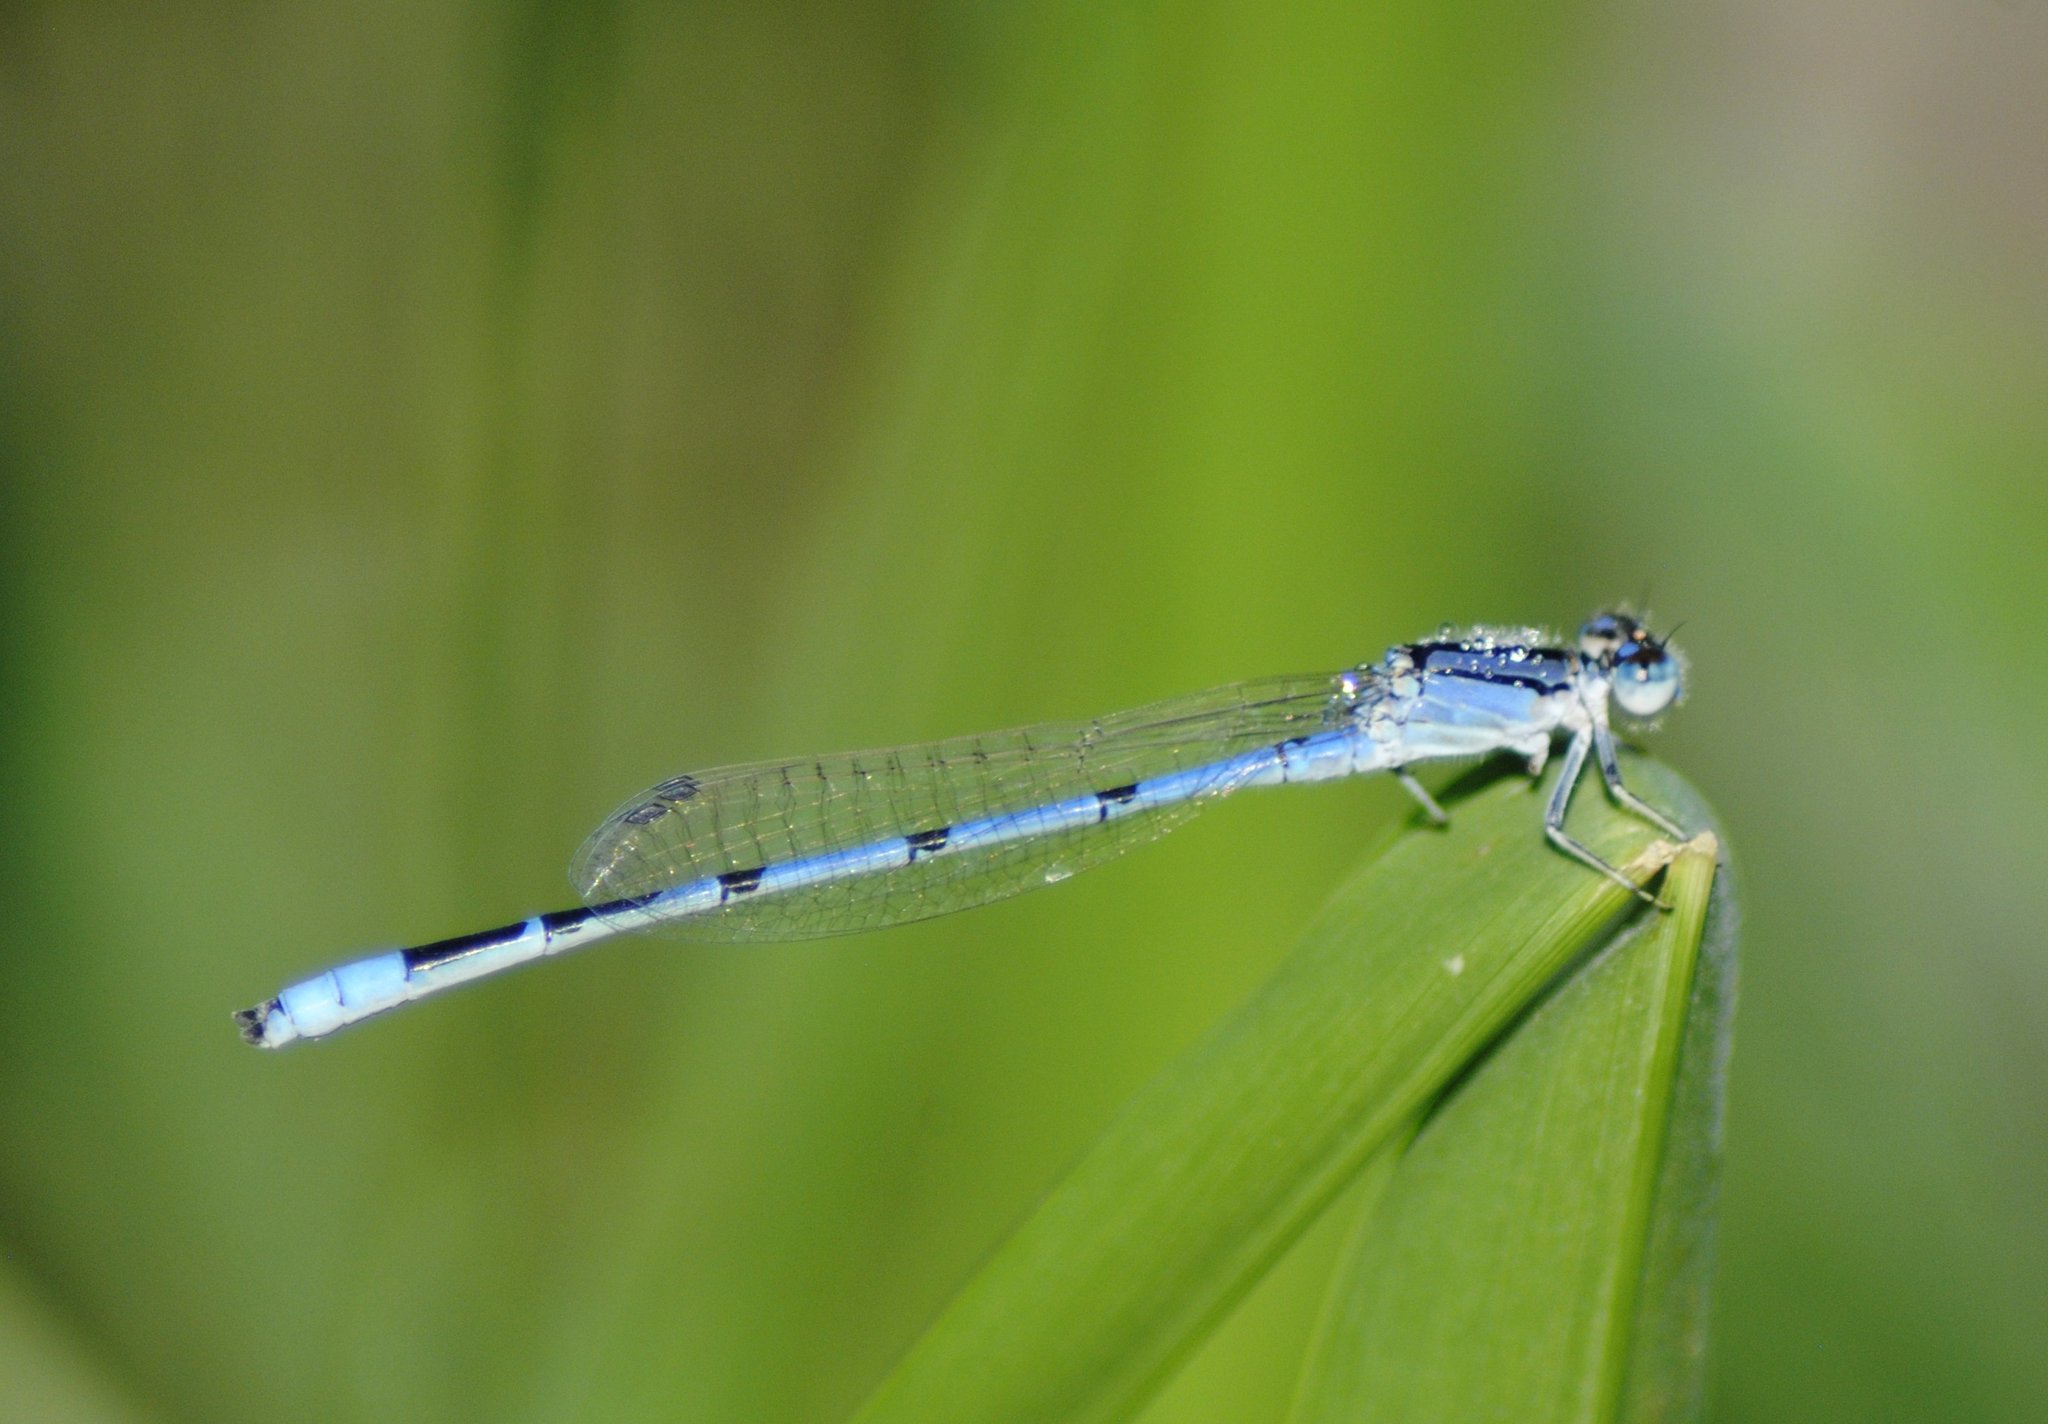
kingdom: Animalia
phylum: Arthropoda
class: Insecta
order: Odonata
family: Coenagrionidae
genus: Enallagma
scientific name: Enallagma civile
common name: Damselfly
